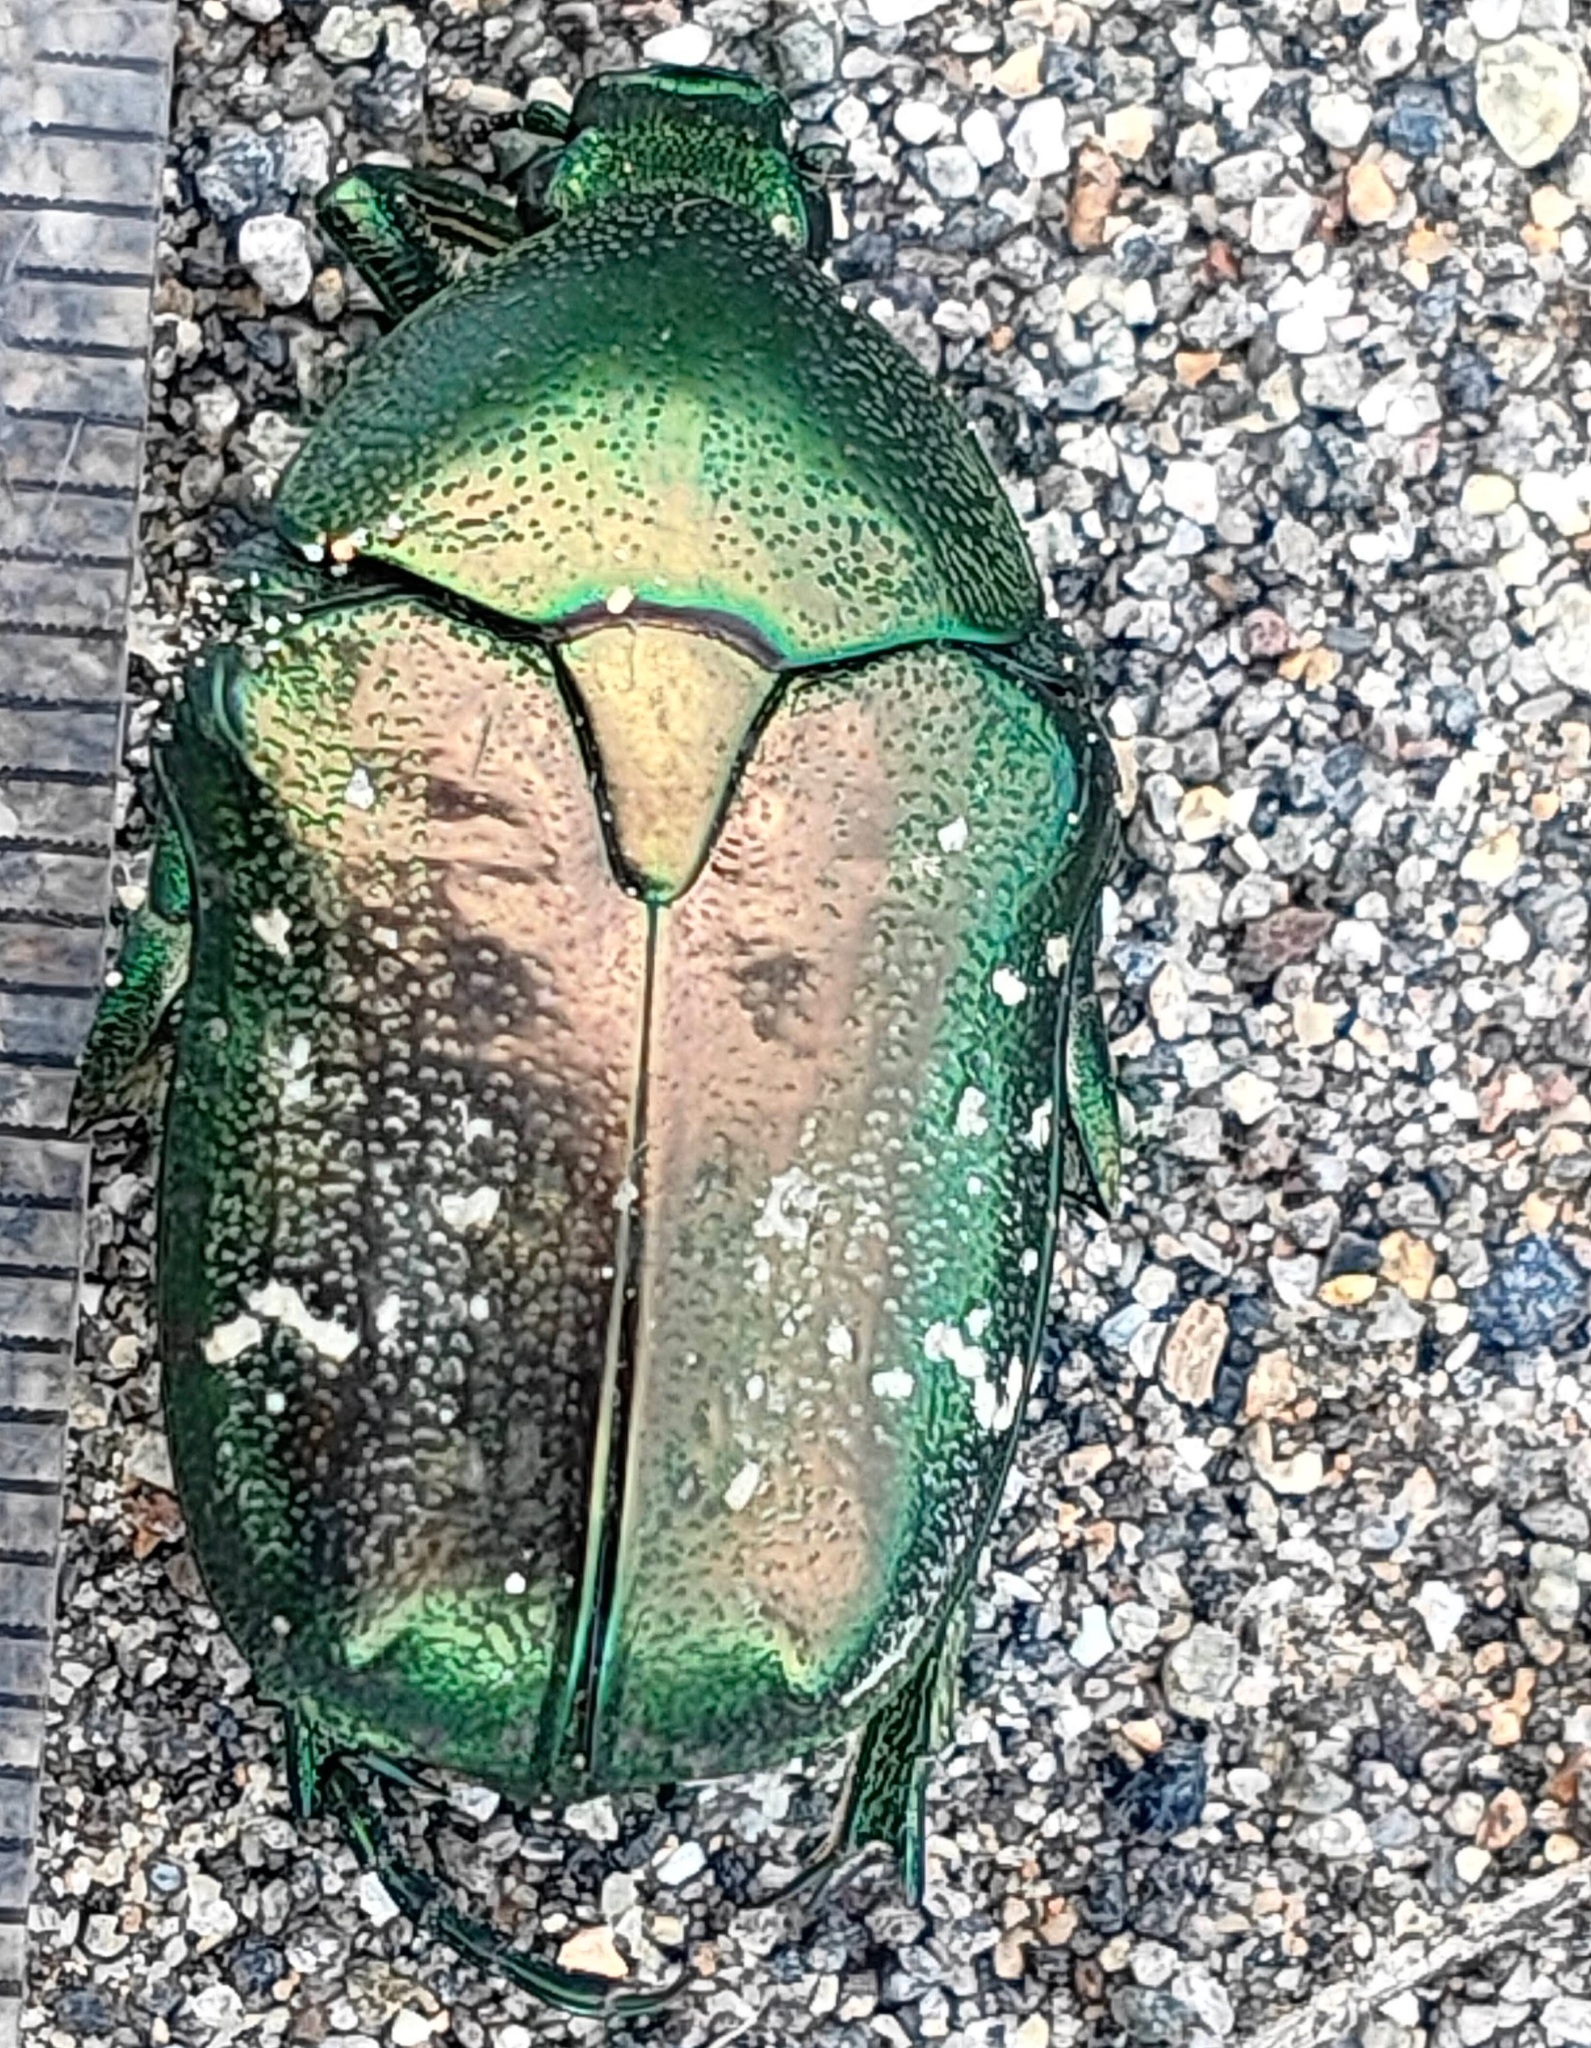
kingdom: Animalia
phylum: Arthropoda
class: Insecta
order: Coleoptera
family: Scarabaeidae
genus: Protaetia
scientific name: Protaetia orientalis
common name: Oriental flower beetle
